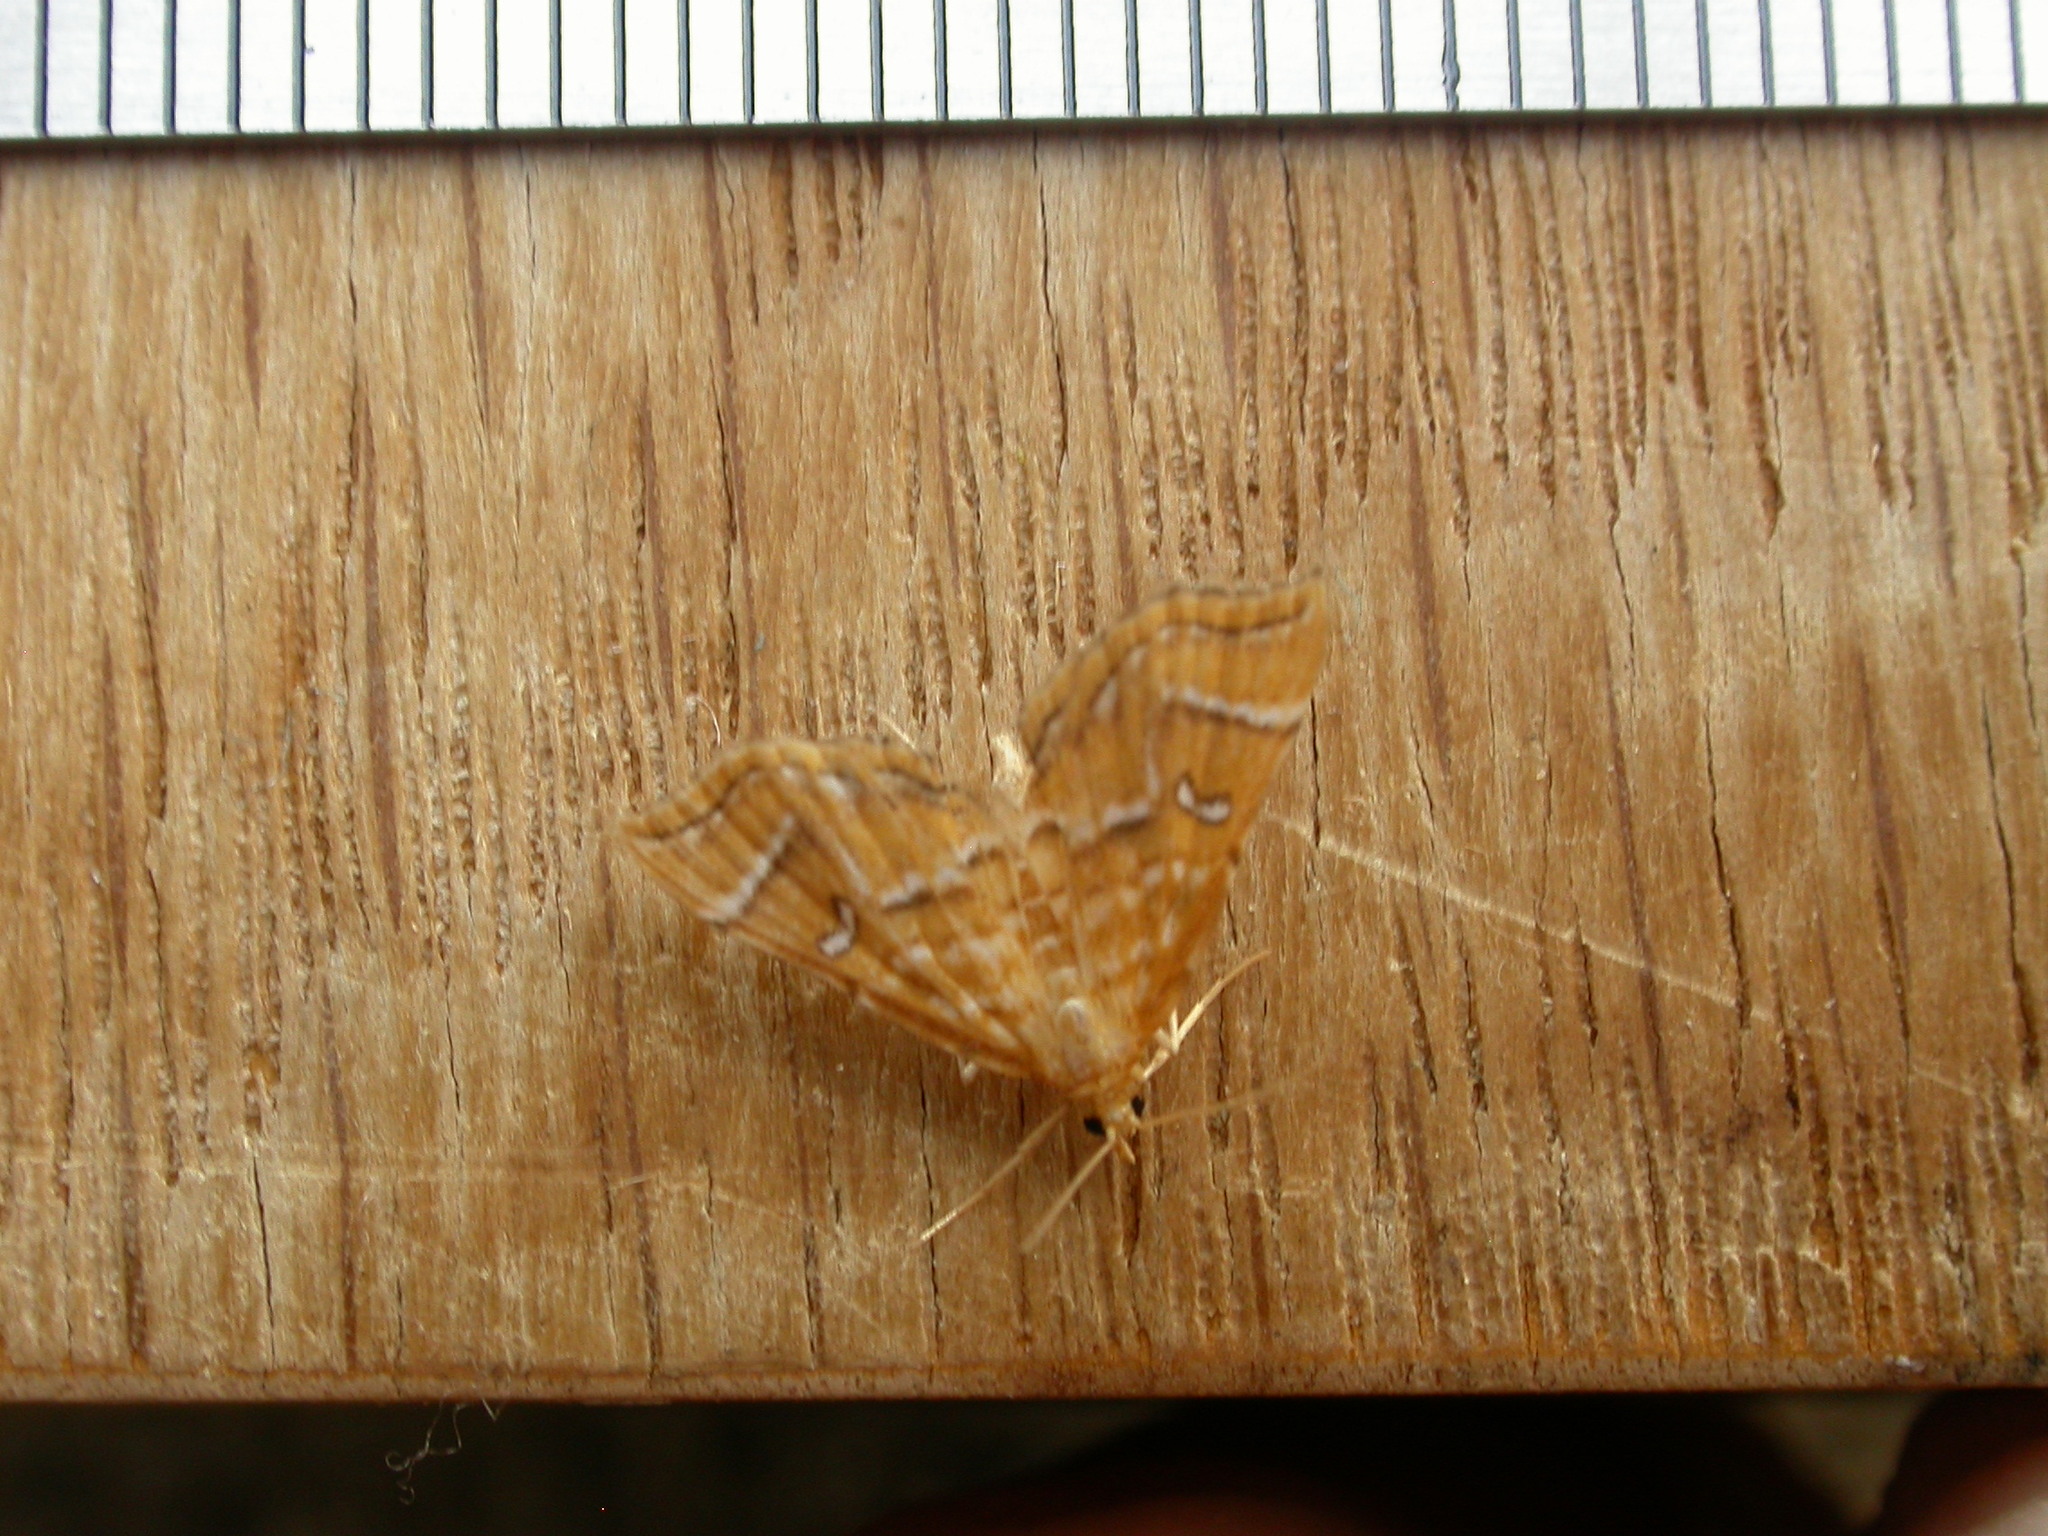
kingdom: Animalia
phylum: Arthropoda
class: Insecta
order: Lepidoptera
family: Pyralidae
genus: Musotima
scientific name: Musotima ochropteralis
